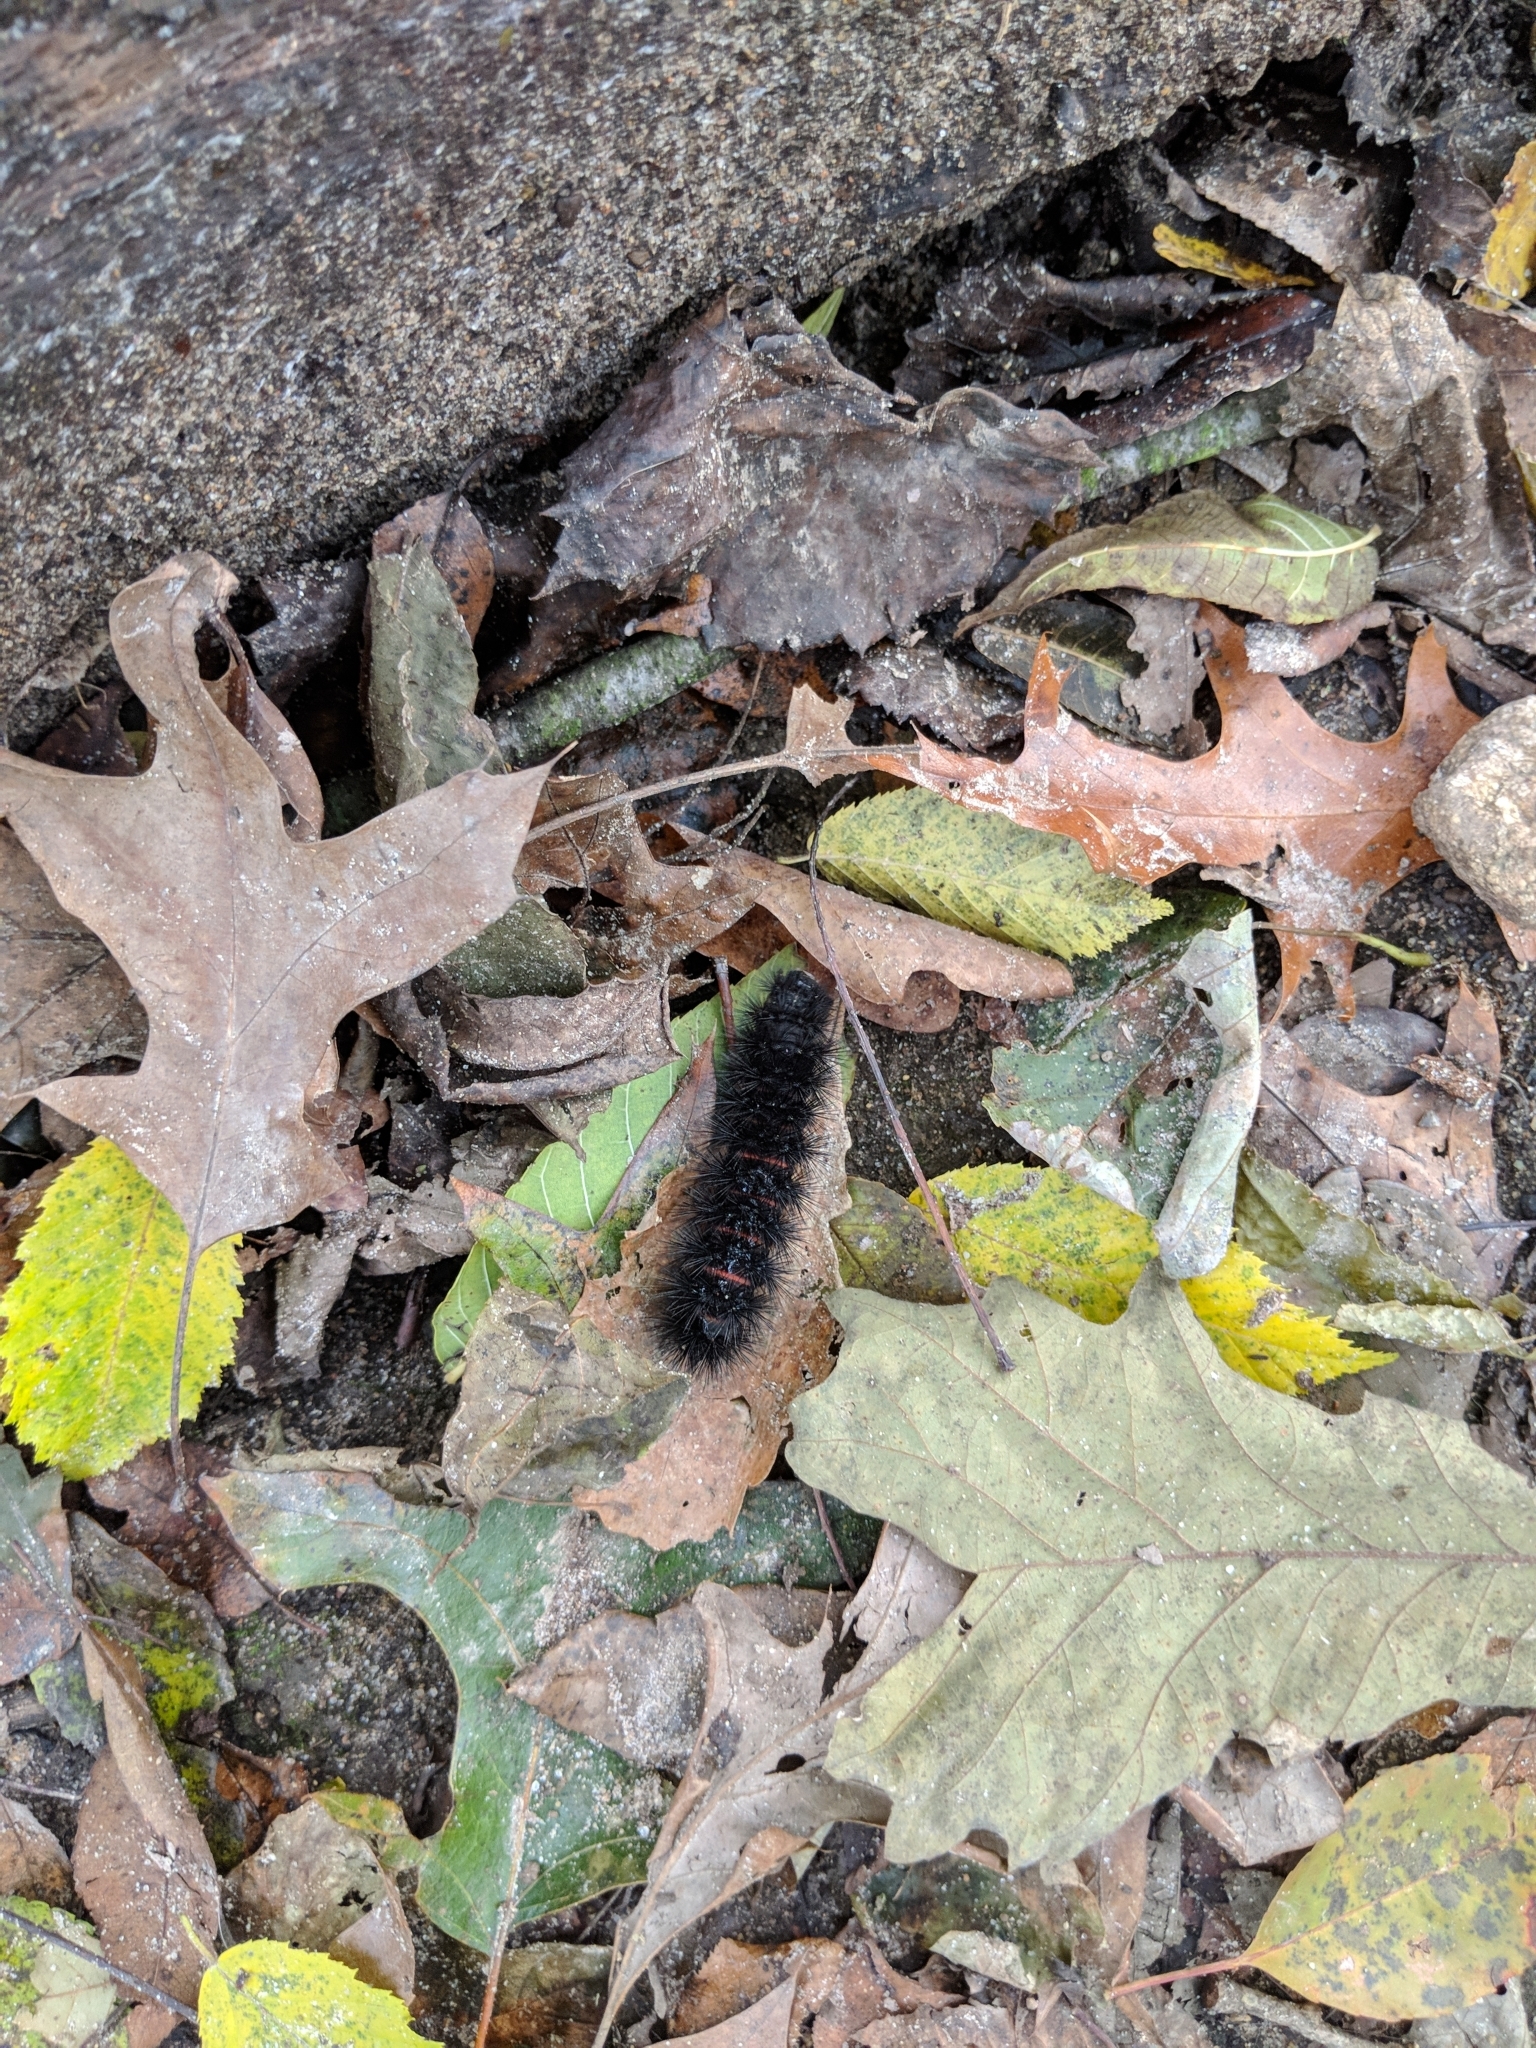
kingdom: Animalia
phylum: Arthropoda
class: Insecta
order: Lepidoptera
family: Erebidae
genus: Hypercompe
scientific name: Hypercompe scribonia
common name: Giant leopard moth
